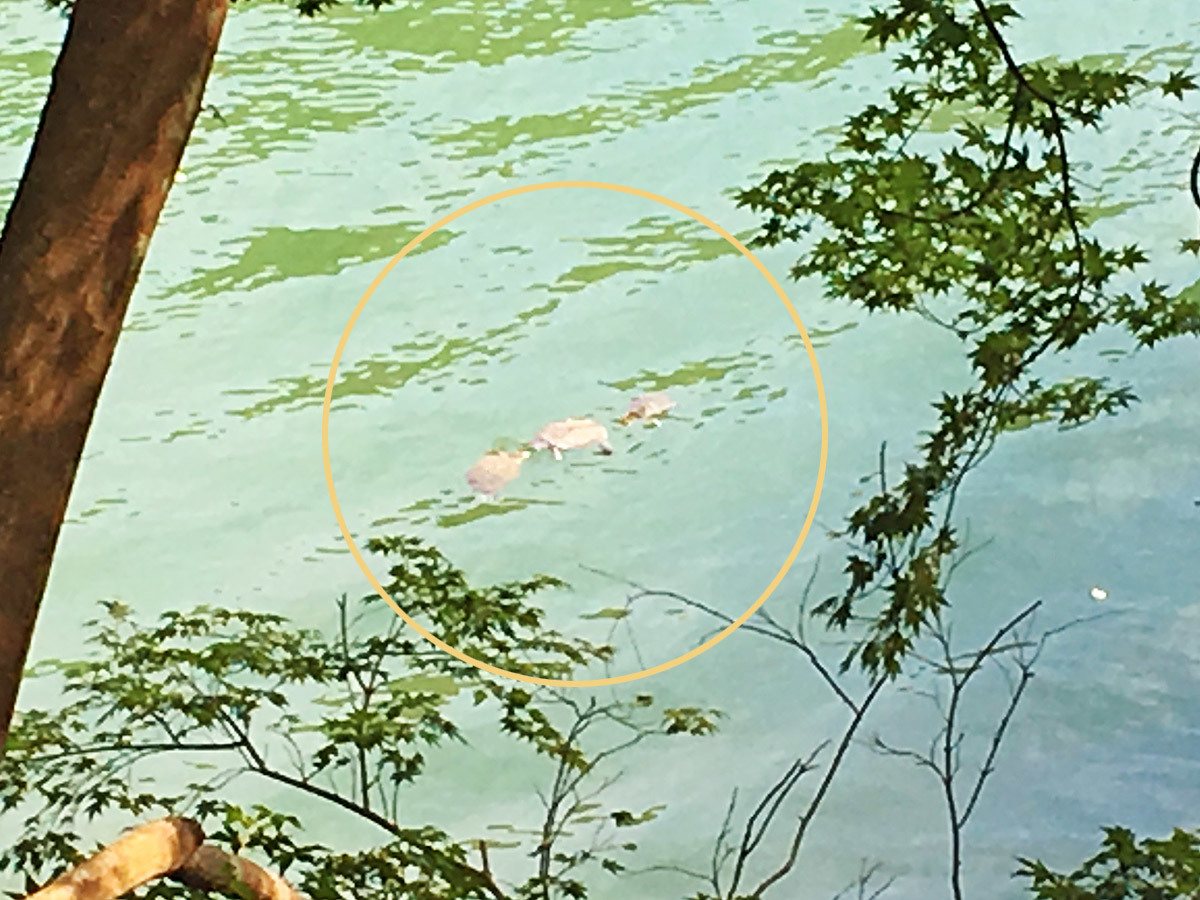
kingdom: Animalia
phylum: Chordata
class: Testudines
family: Emydidae
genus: Trachemys
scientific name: Trachemys scripta
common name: Slider
